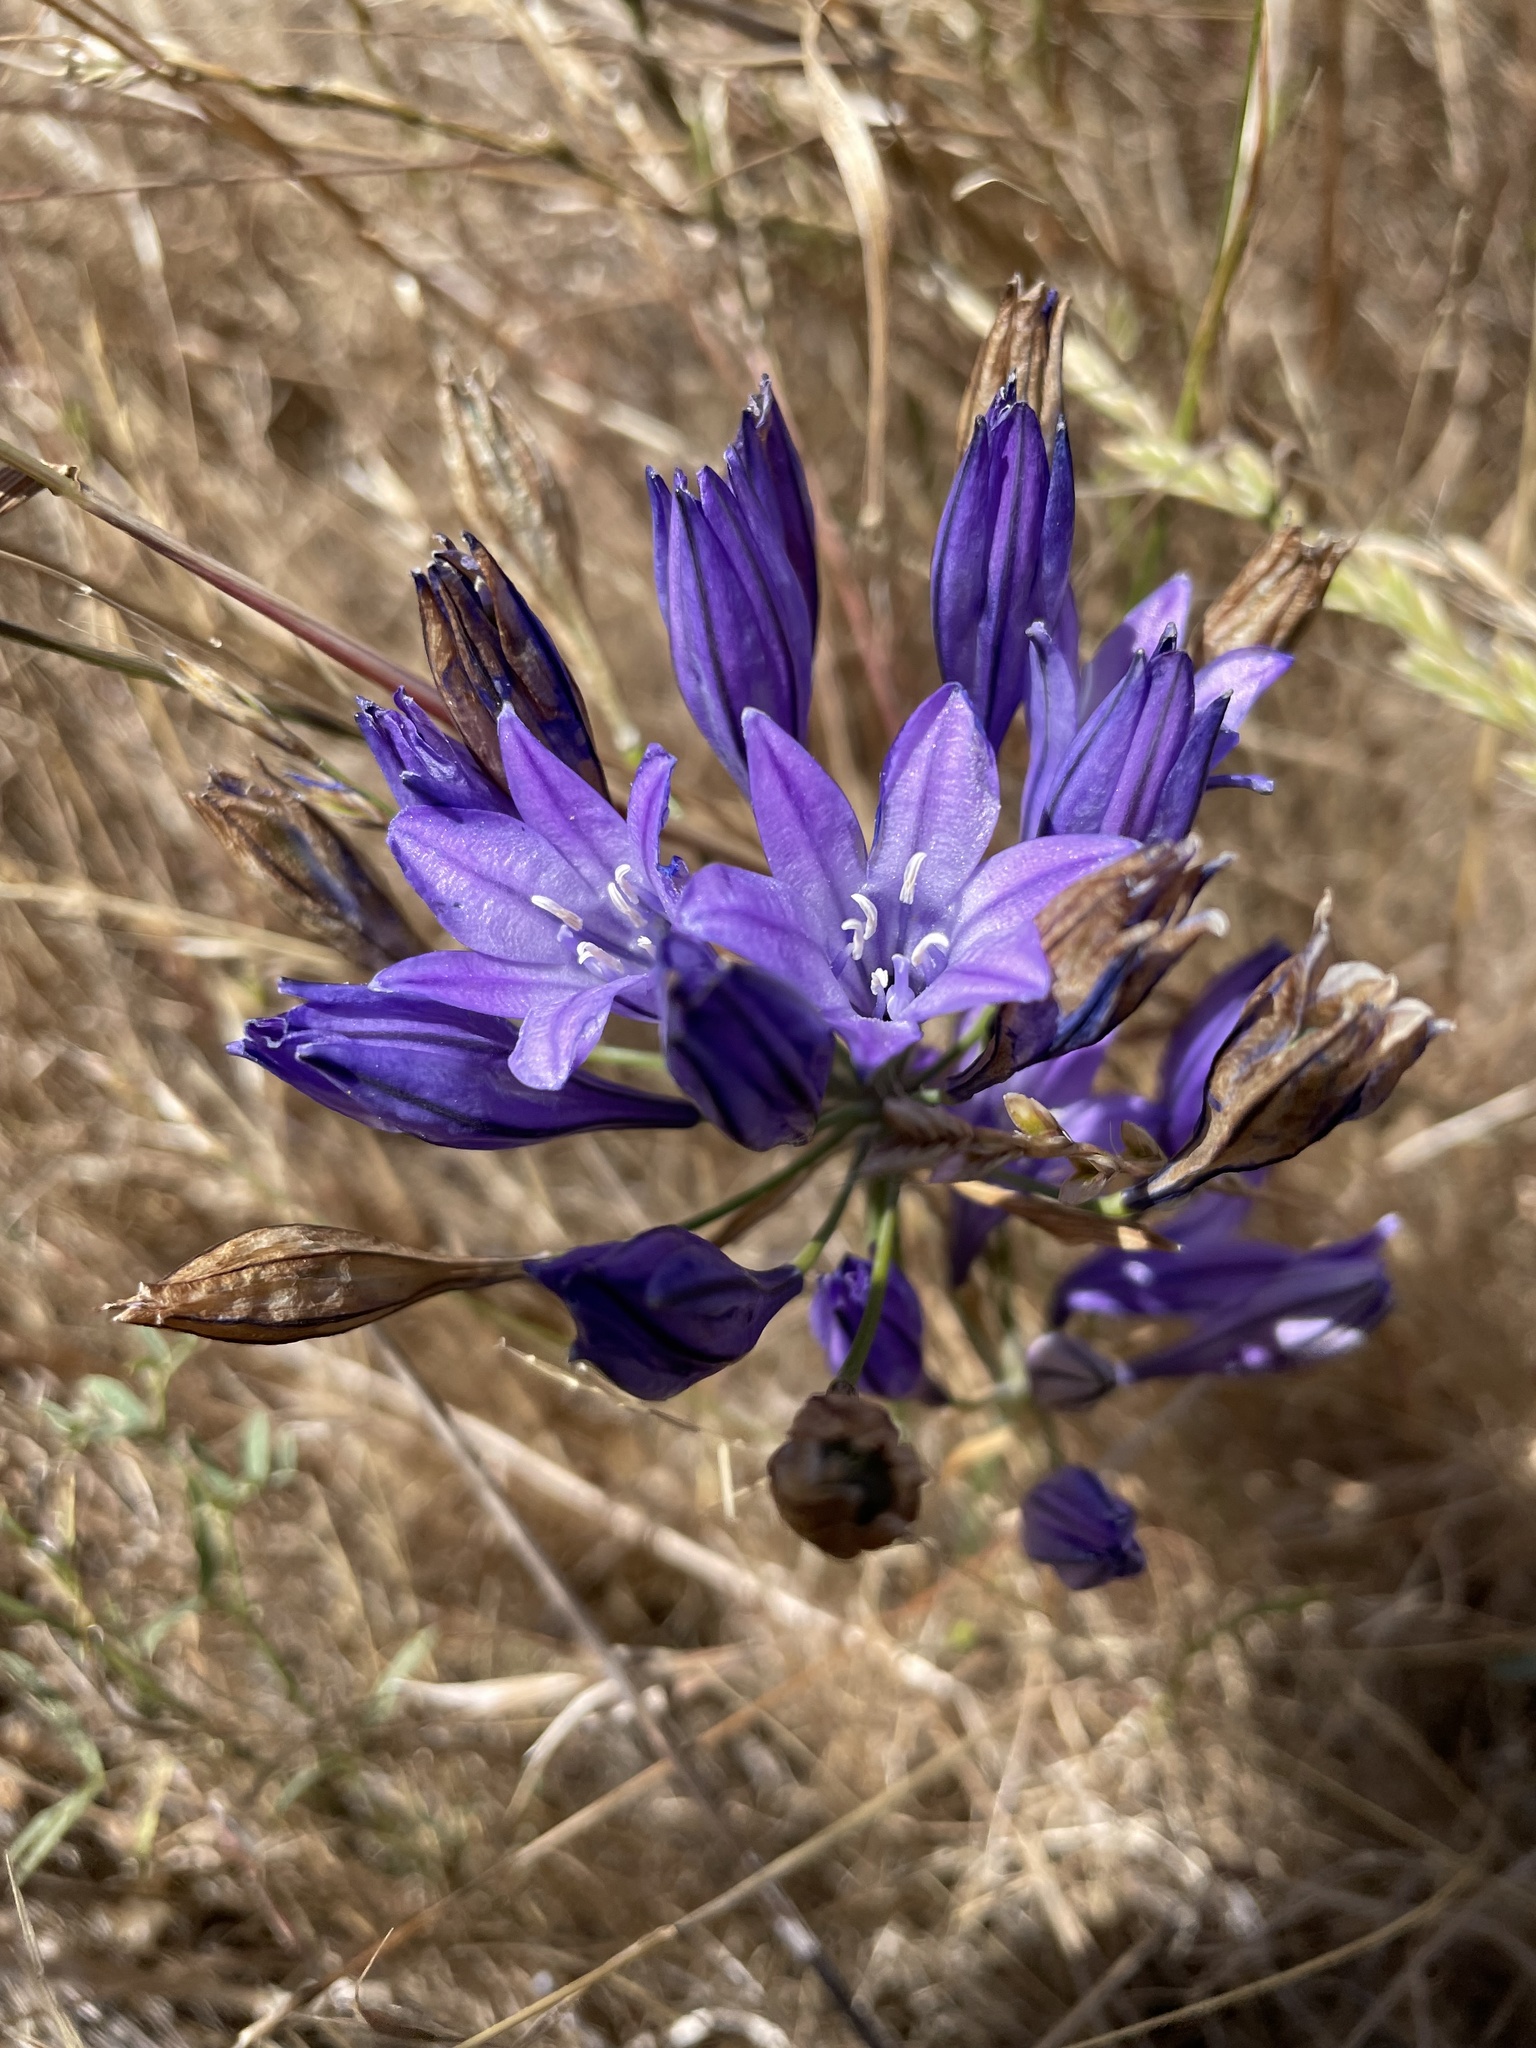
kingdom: Plantae
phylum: Tracheophyta
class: Liliopsida
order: Asparagales
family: Asparagaceae
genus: Triteleia
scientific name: Triteleia laxa
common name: Triplet-lily
